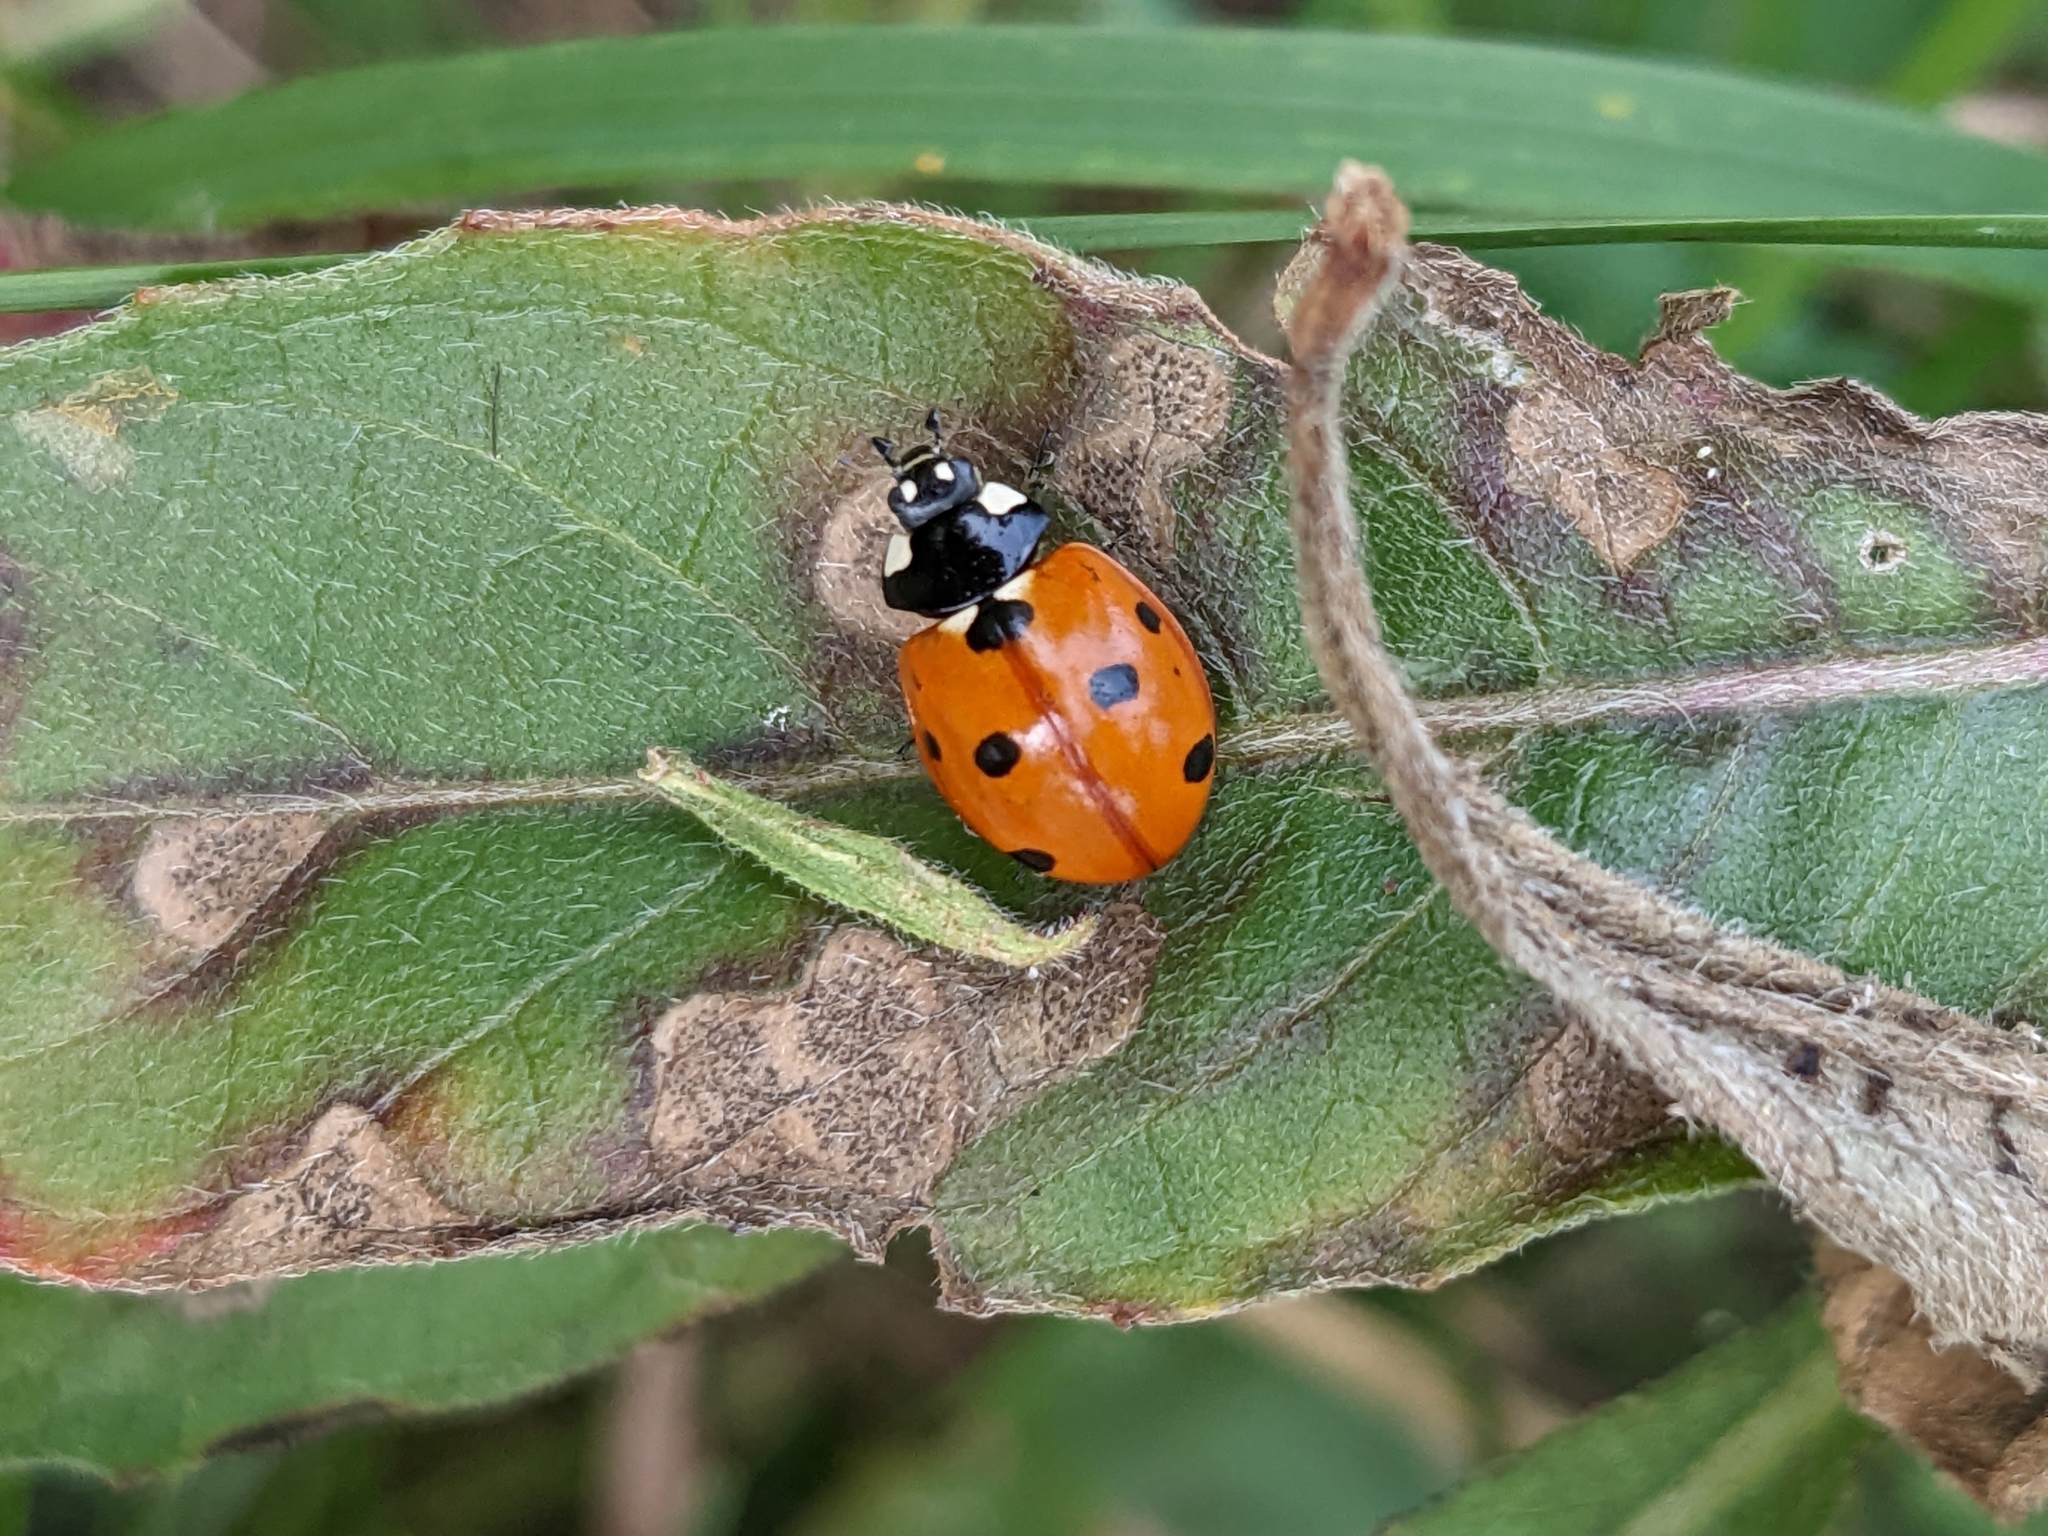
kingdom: Animalia
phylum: Arthropoda
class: Insecta
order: Coleoptera
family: Coccinellidae
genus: Coccinella
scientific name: Coccinella septempunctata
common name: Sevenspotted lady beetle
